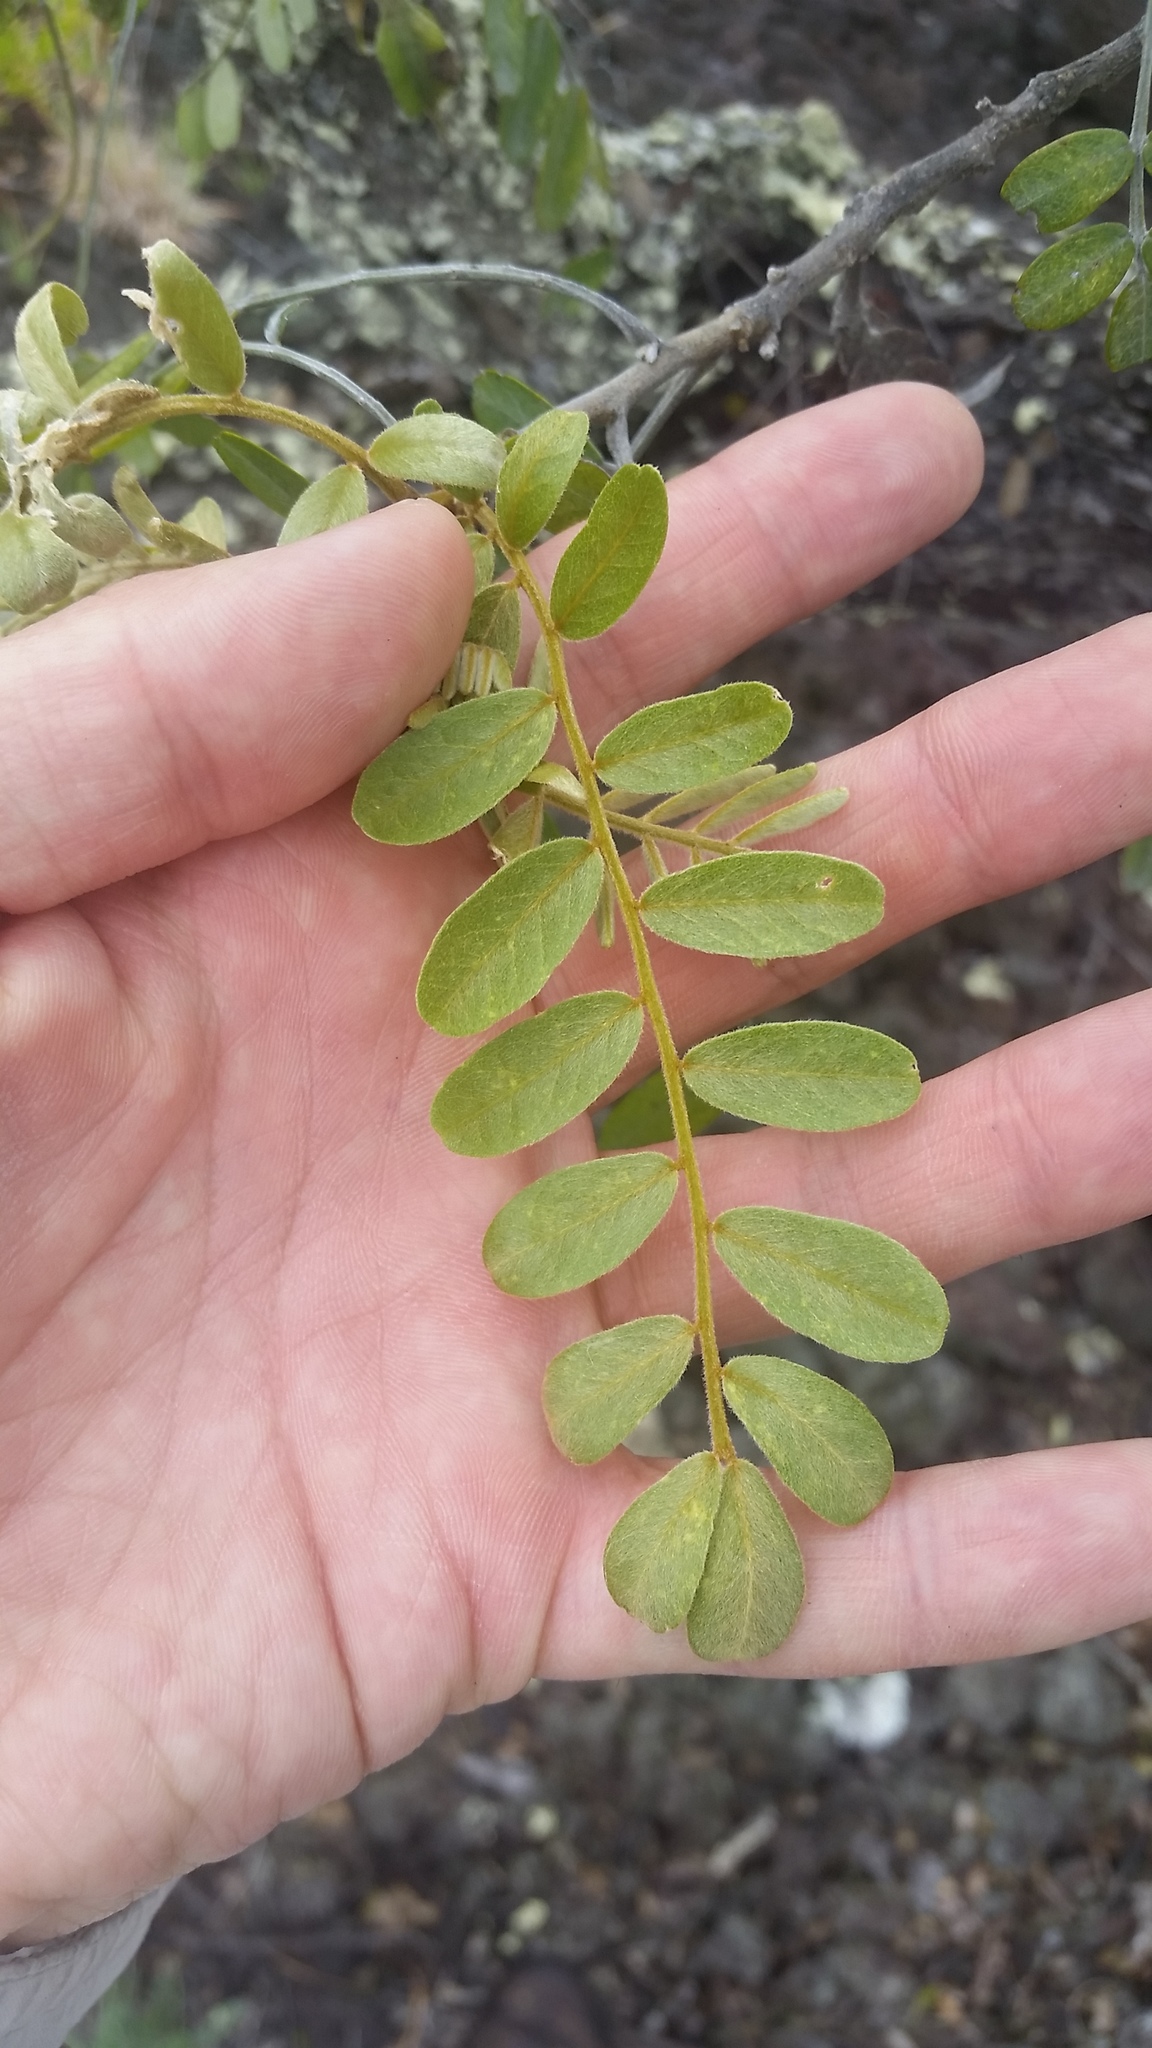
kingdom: Plantae
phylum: Tracheophyta
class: Magnoliopsida
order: Fabales
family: Fabaceae
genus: Sophora
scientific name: Sophora chrysophylla
